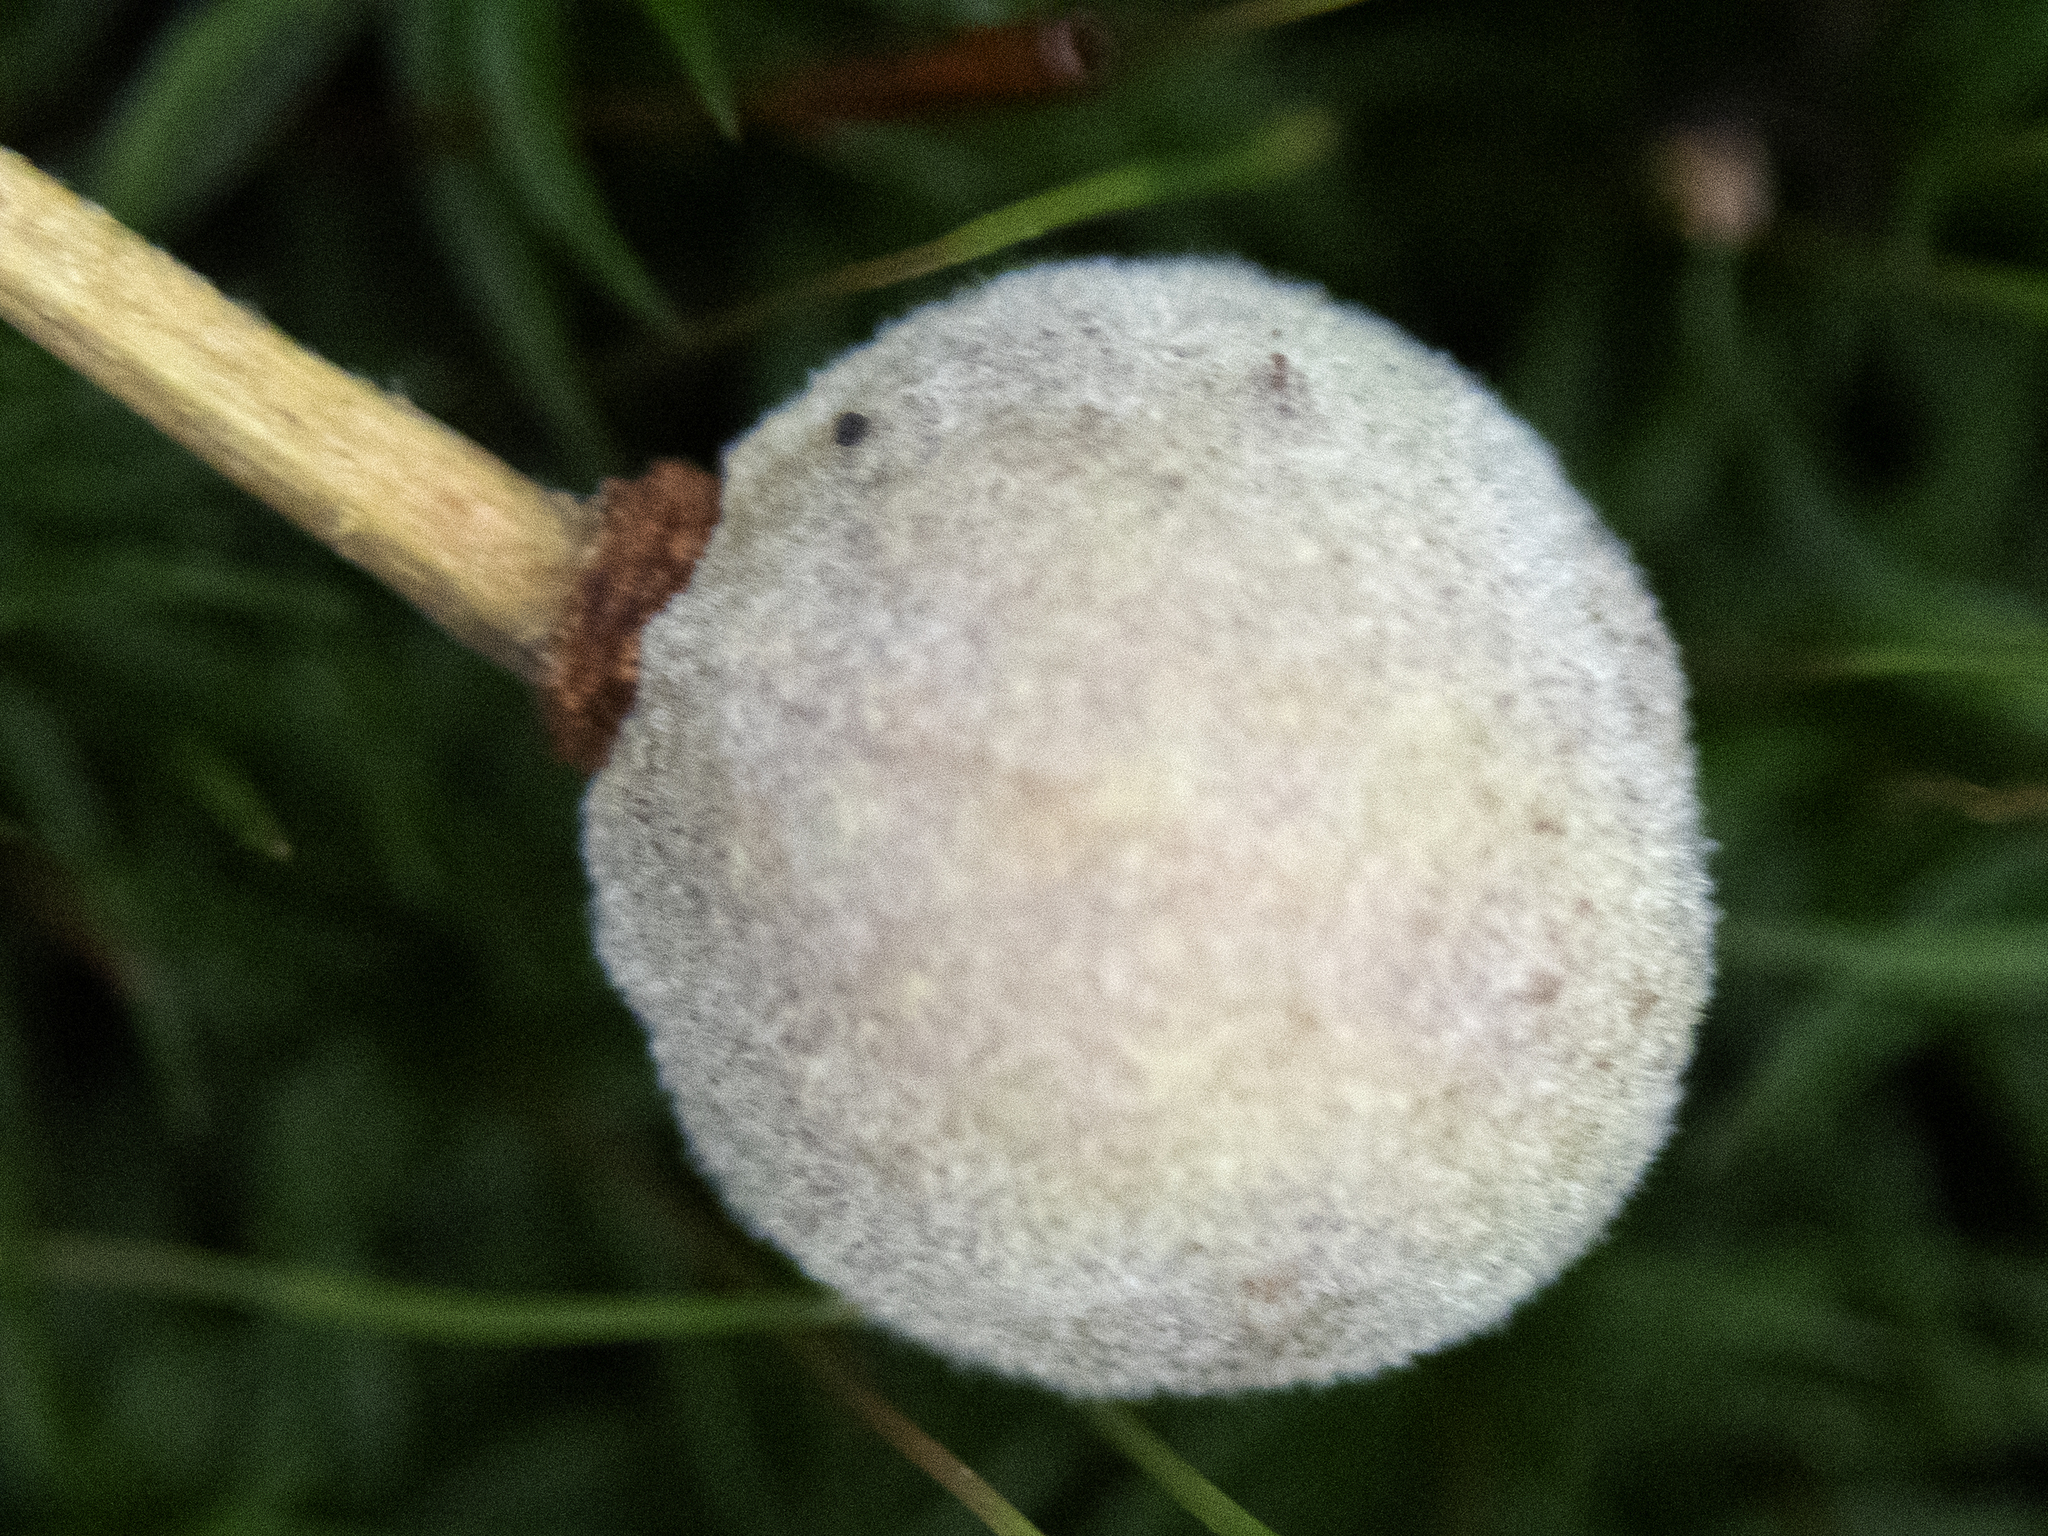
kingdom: Plantae
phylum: Tracheophyta
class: Magnoliopsida
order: Malvales
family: Malvaceae
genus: Tilia
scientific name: Tilia americana
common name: Basswood
